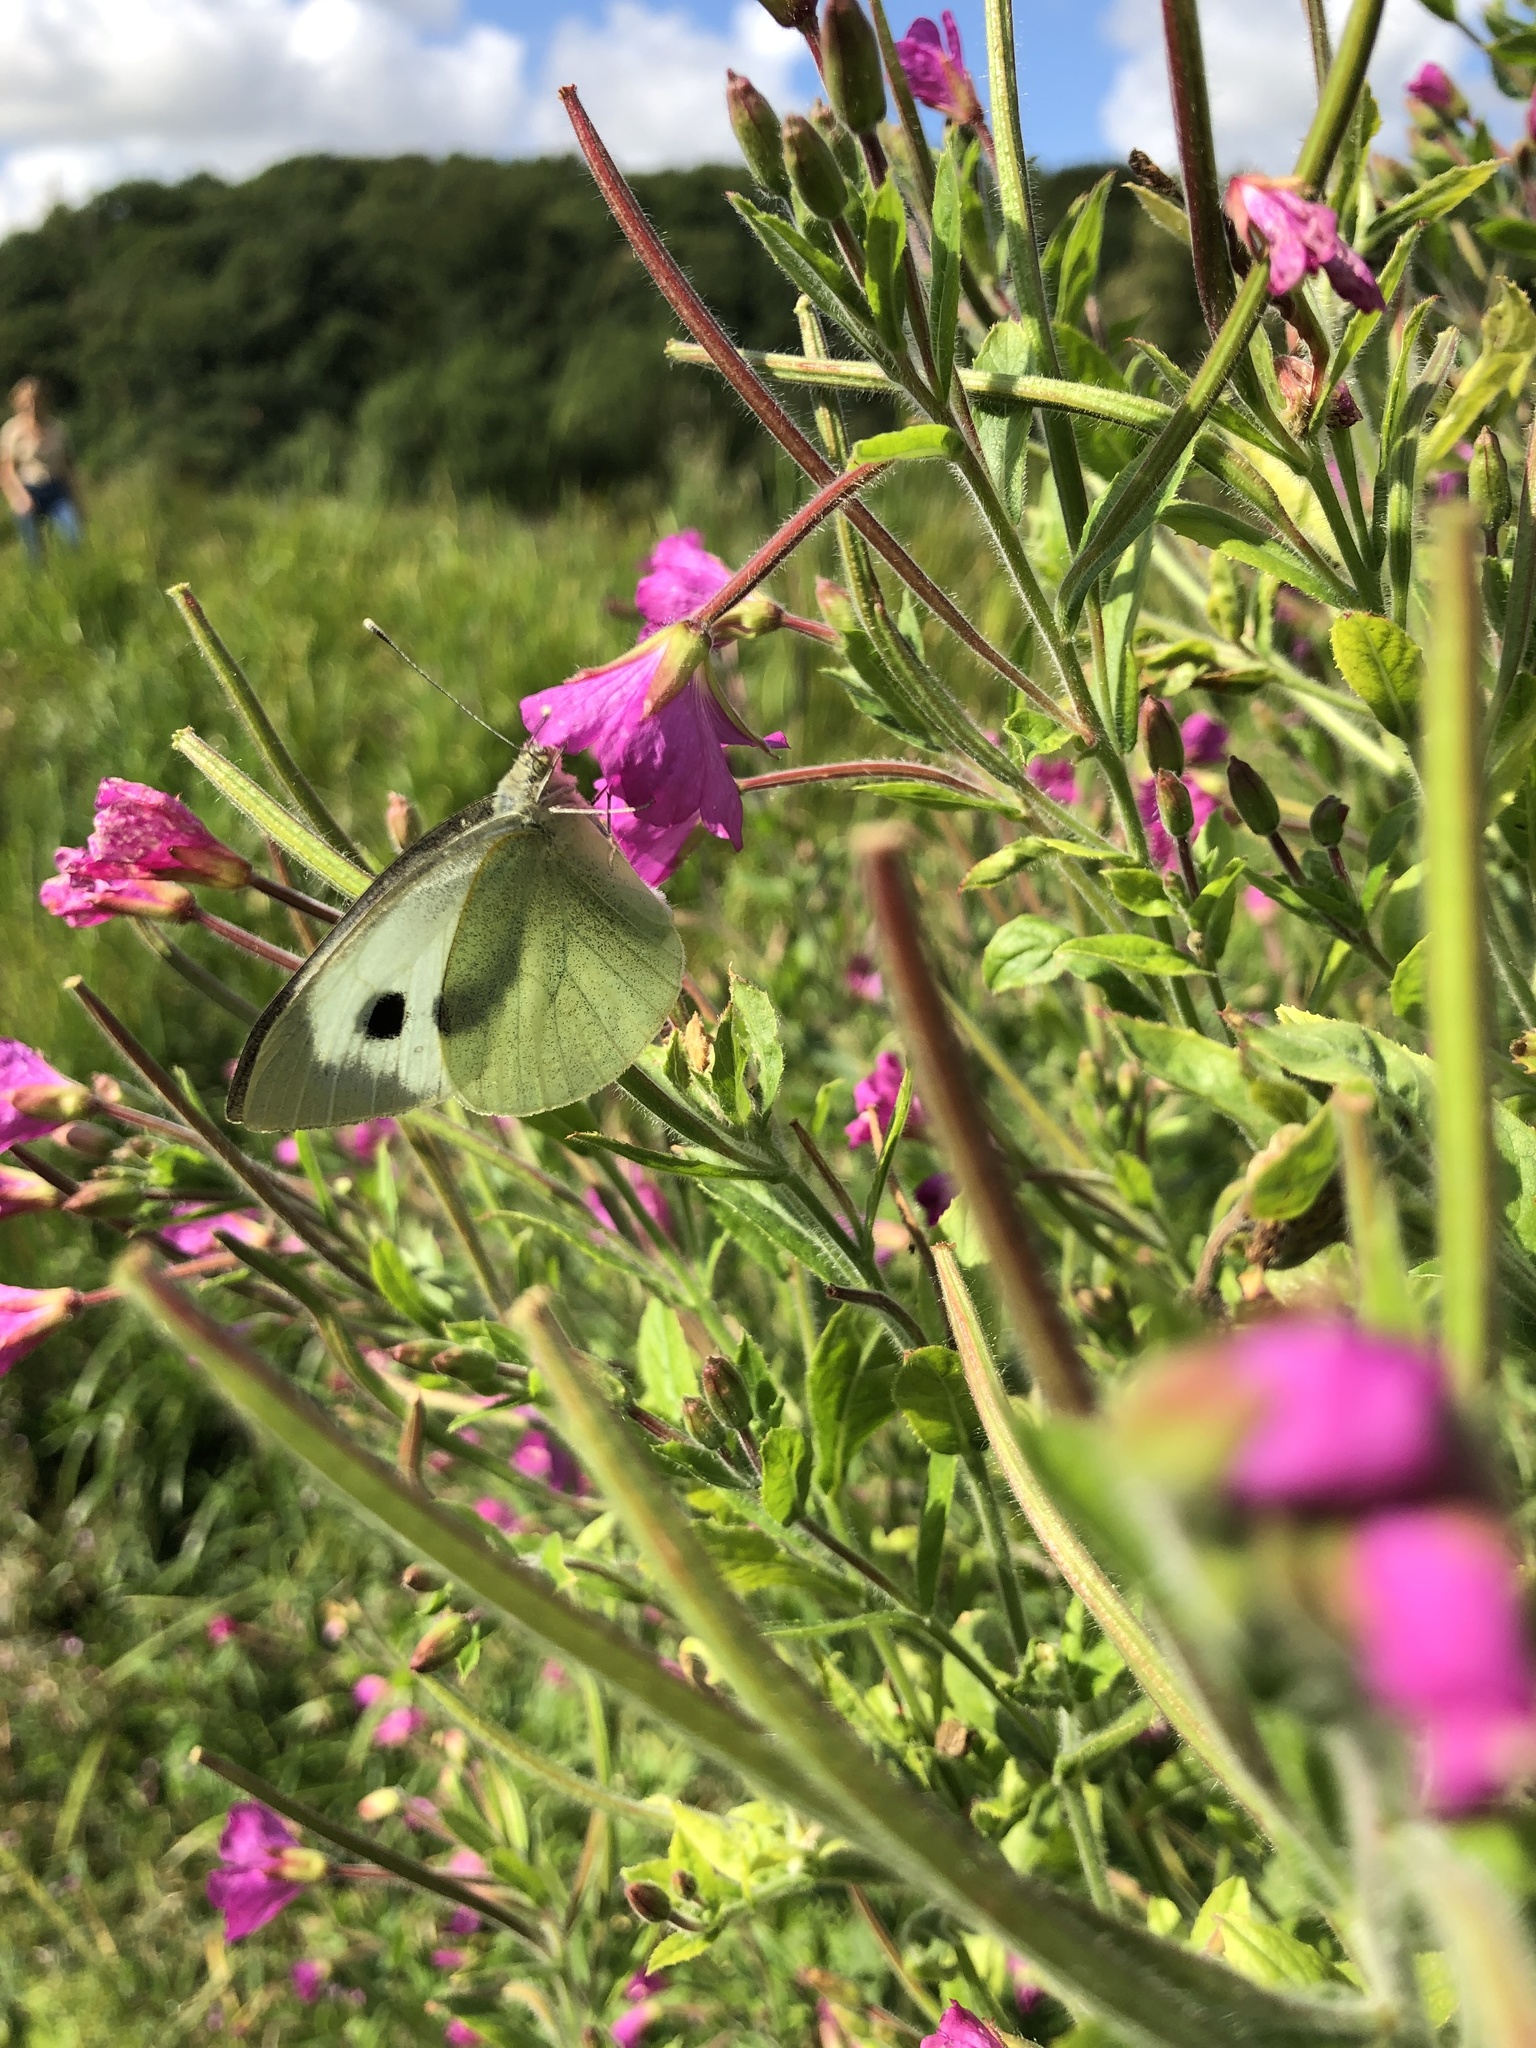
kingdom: Animalia
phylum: Arthropoda
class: Insecta
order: Lepidoptera
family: Pieridae
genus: Pieris
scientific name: Pieris brassicae
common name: Large white
